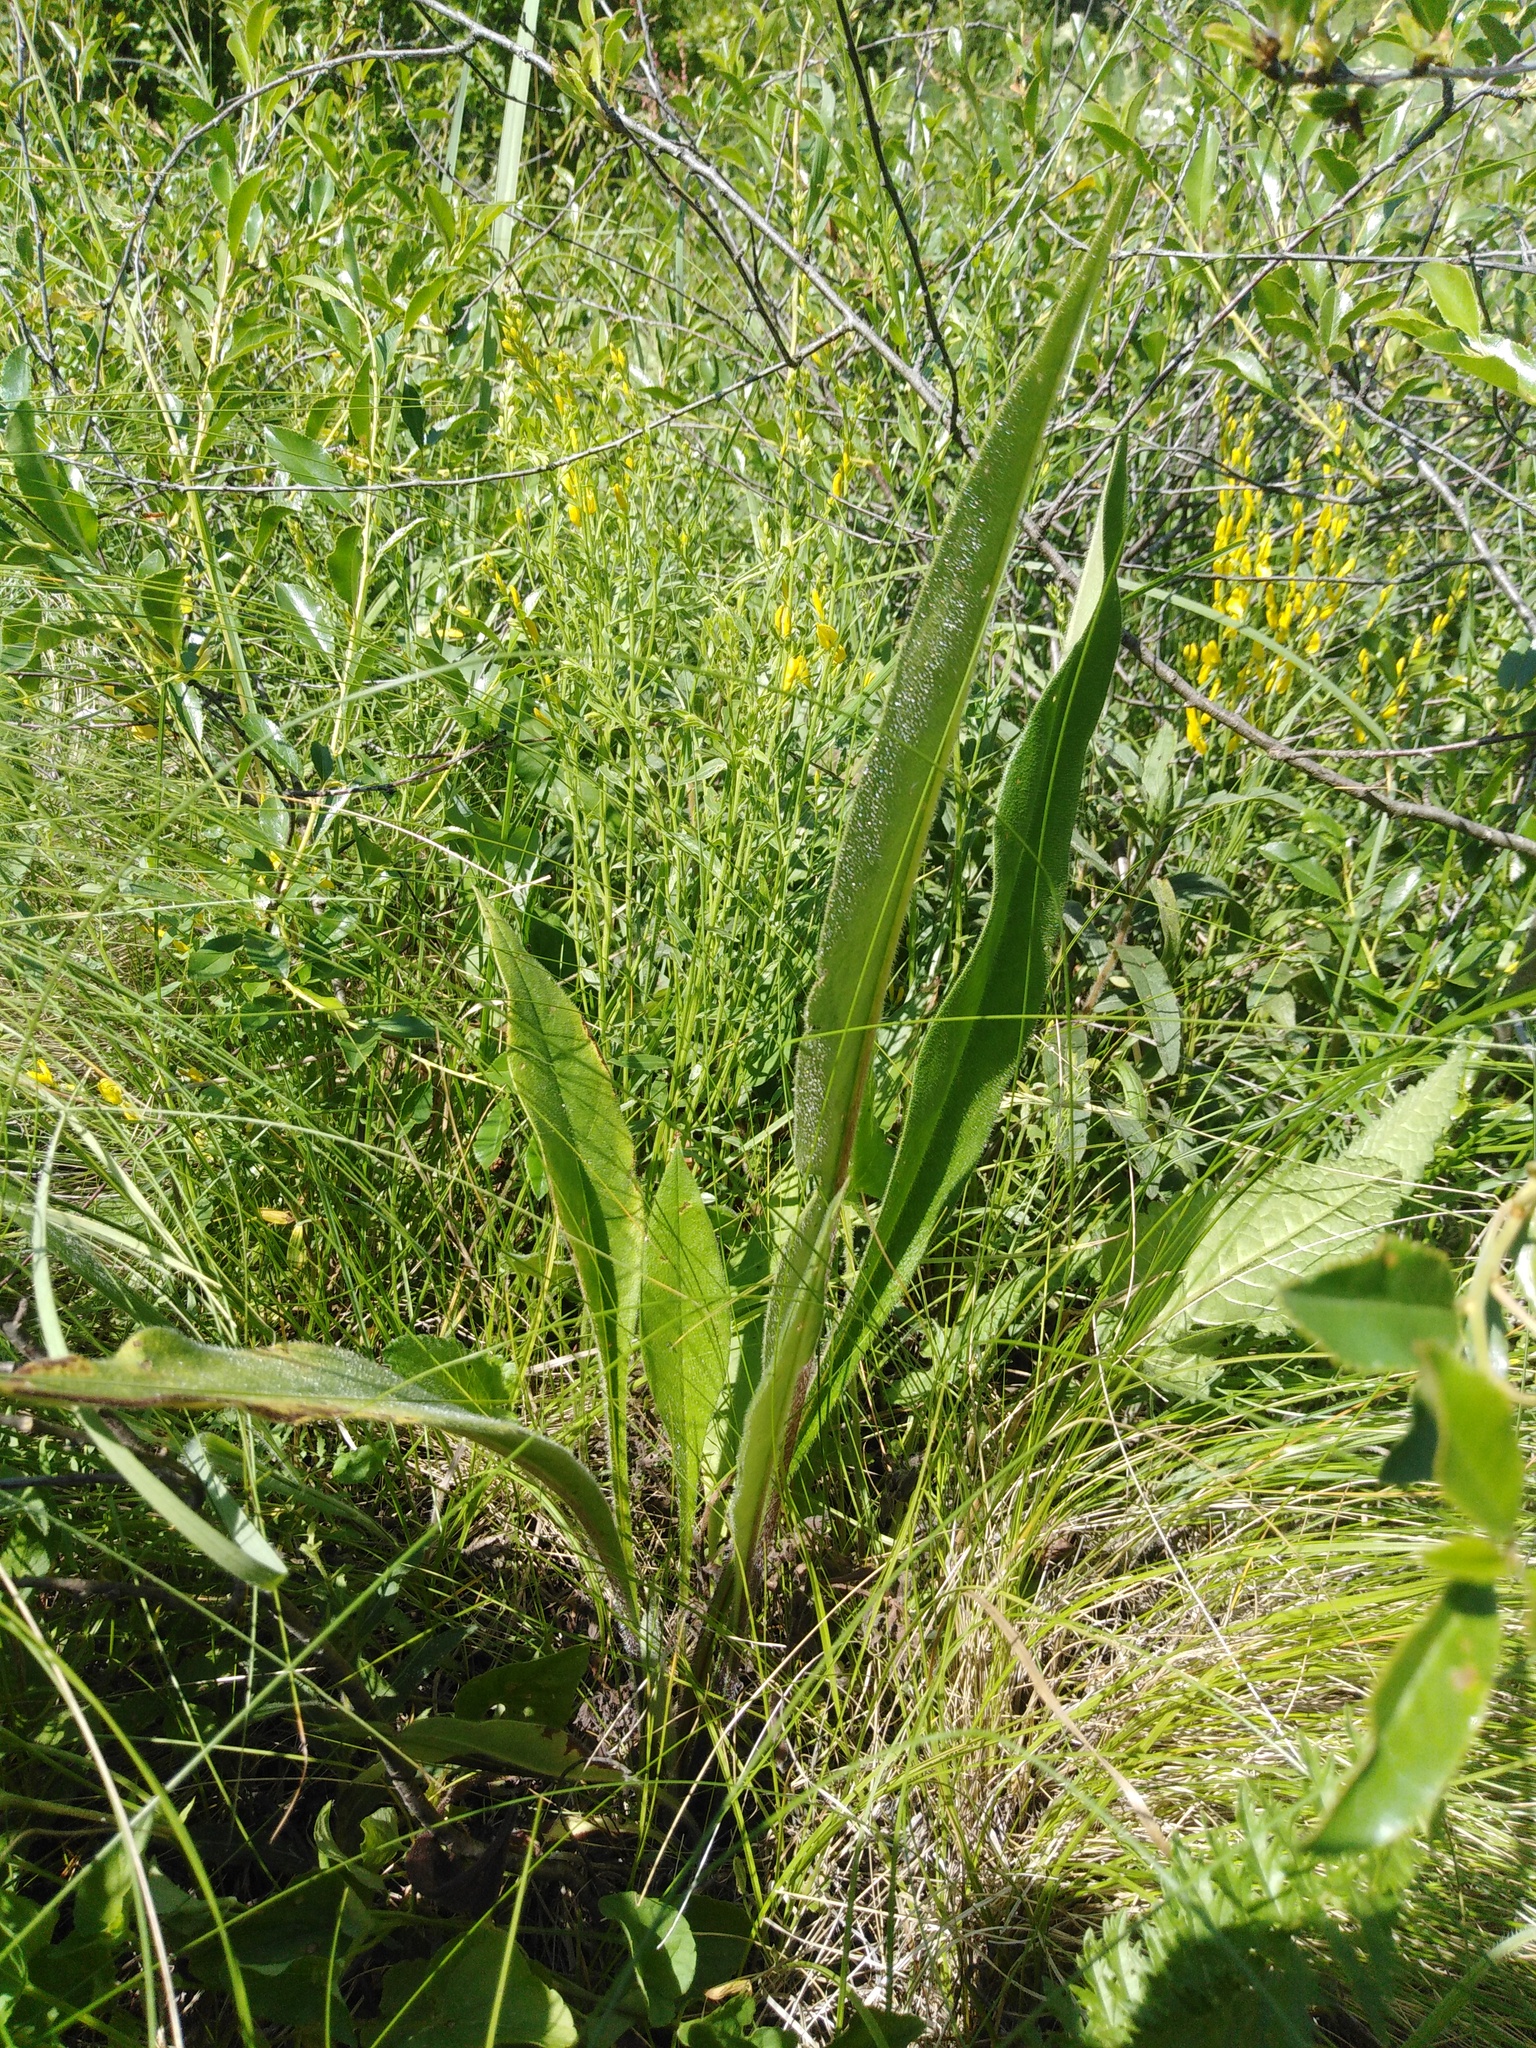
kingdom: Plantae
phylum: Tracheophyta
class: Magnoliopsida
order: Boraginales
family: Boraginaceae
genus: Pulmonaria
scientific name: Pulmonaria angustifolia
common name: Blue cowslip
